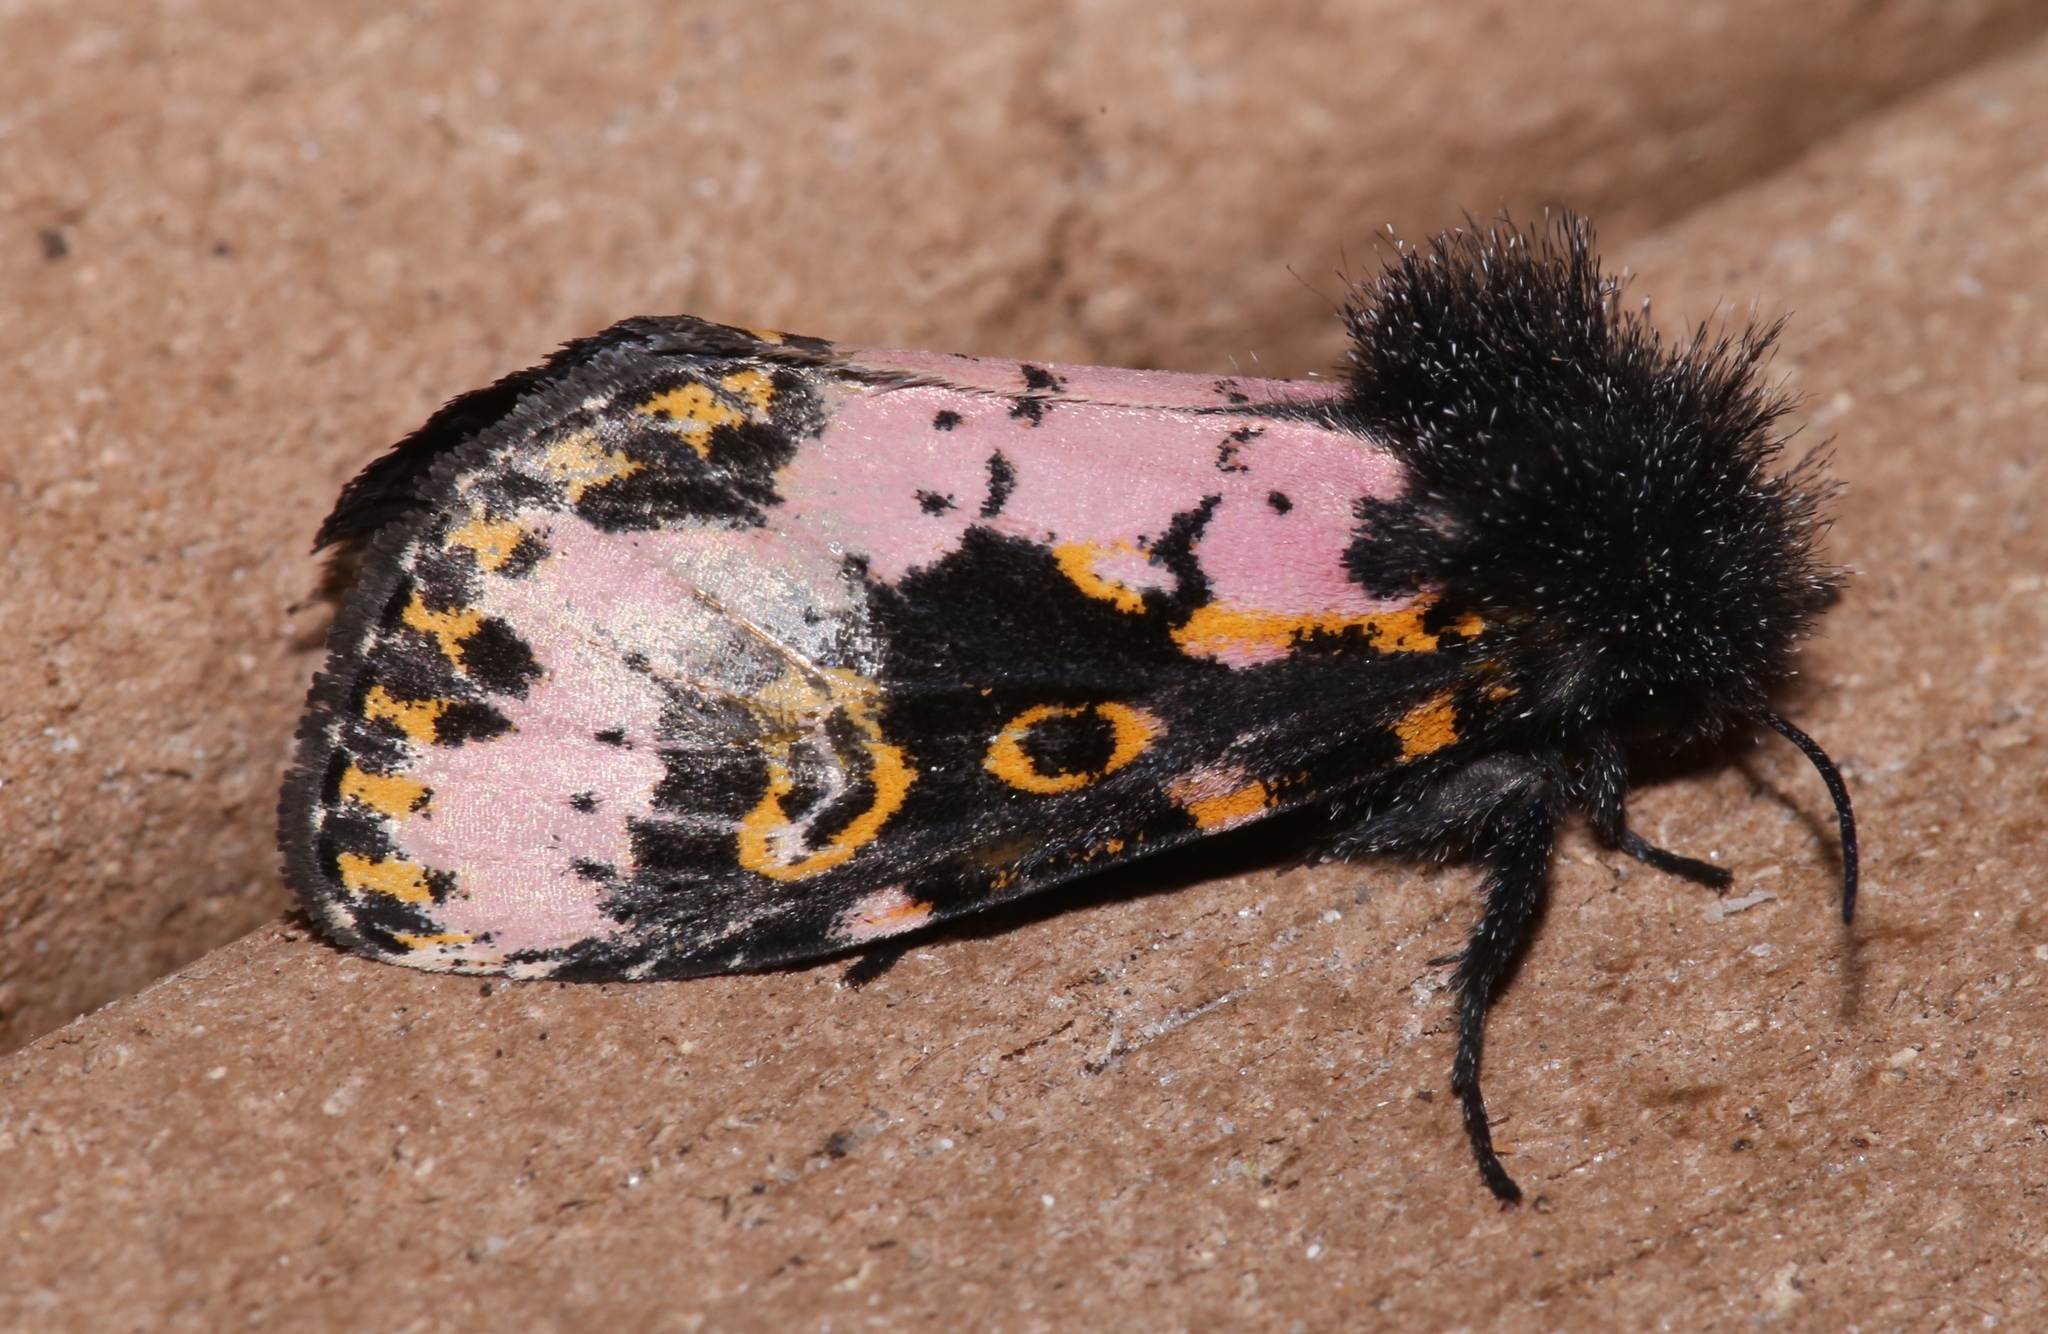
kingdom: Animalia
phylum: Arthropoda
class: Insecta
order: Lepidoptera
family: Noctuidae
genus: Xanthopastis
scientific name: Xanthopastis regnatrix
